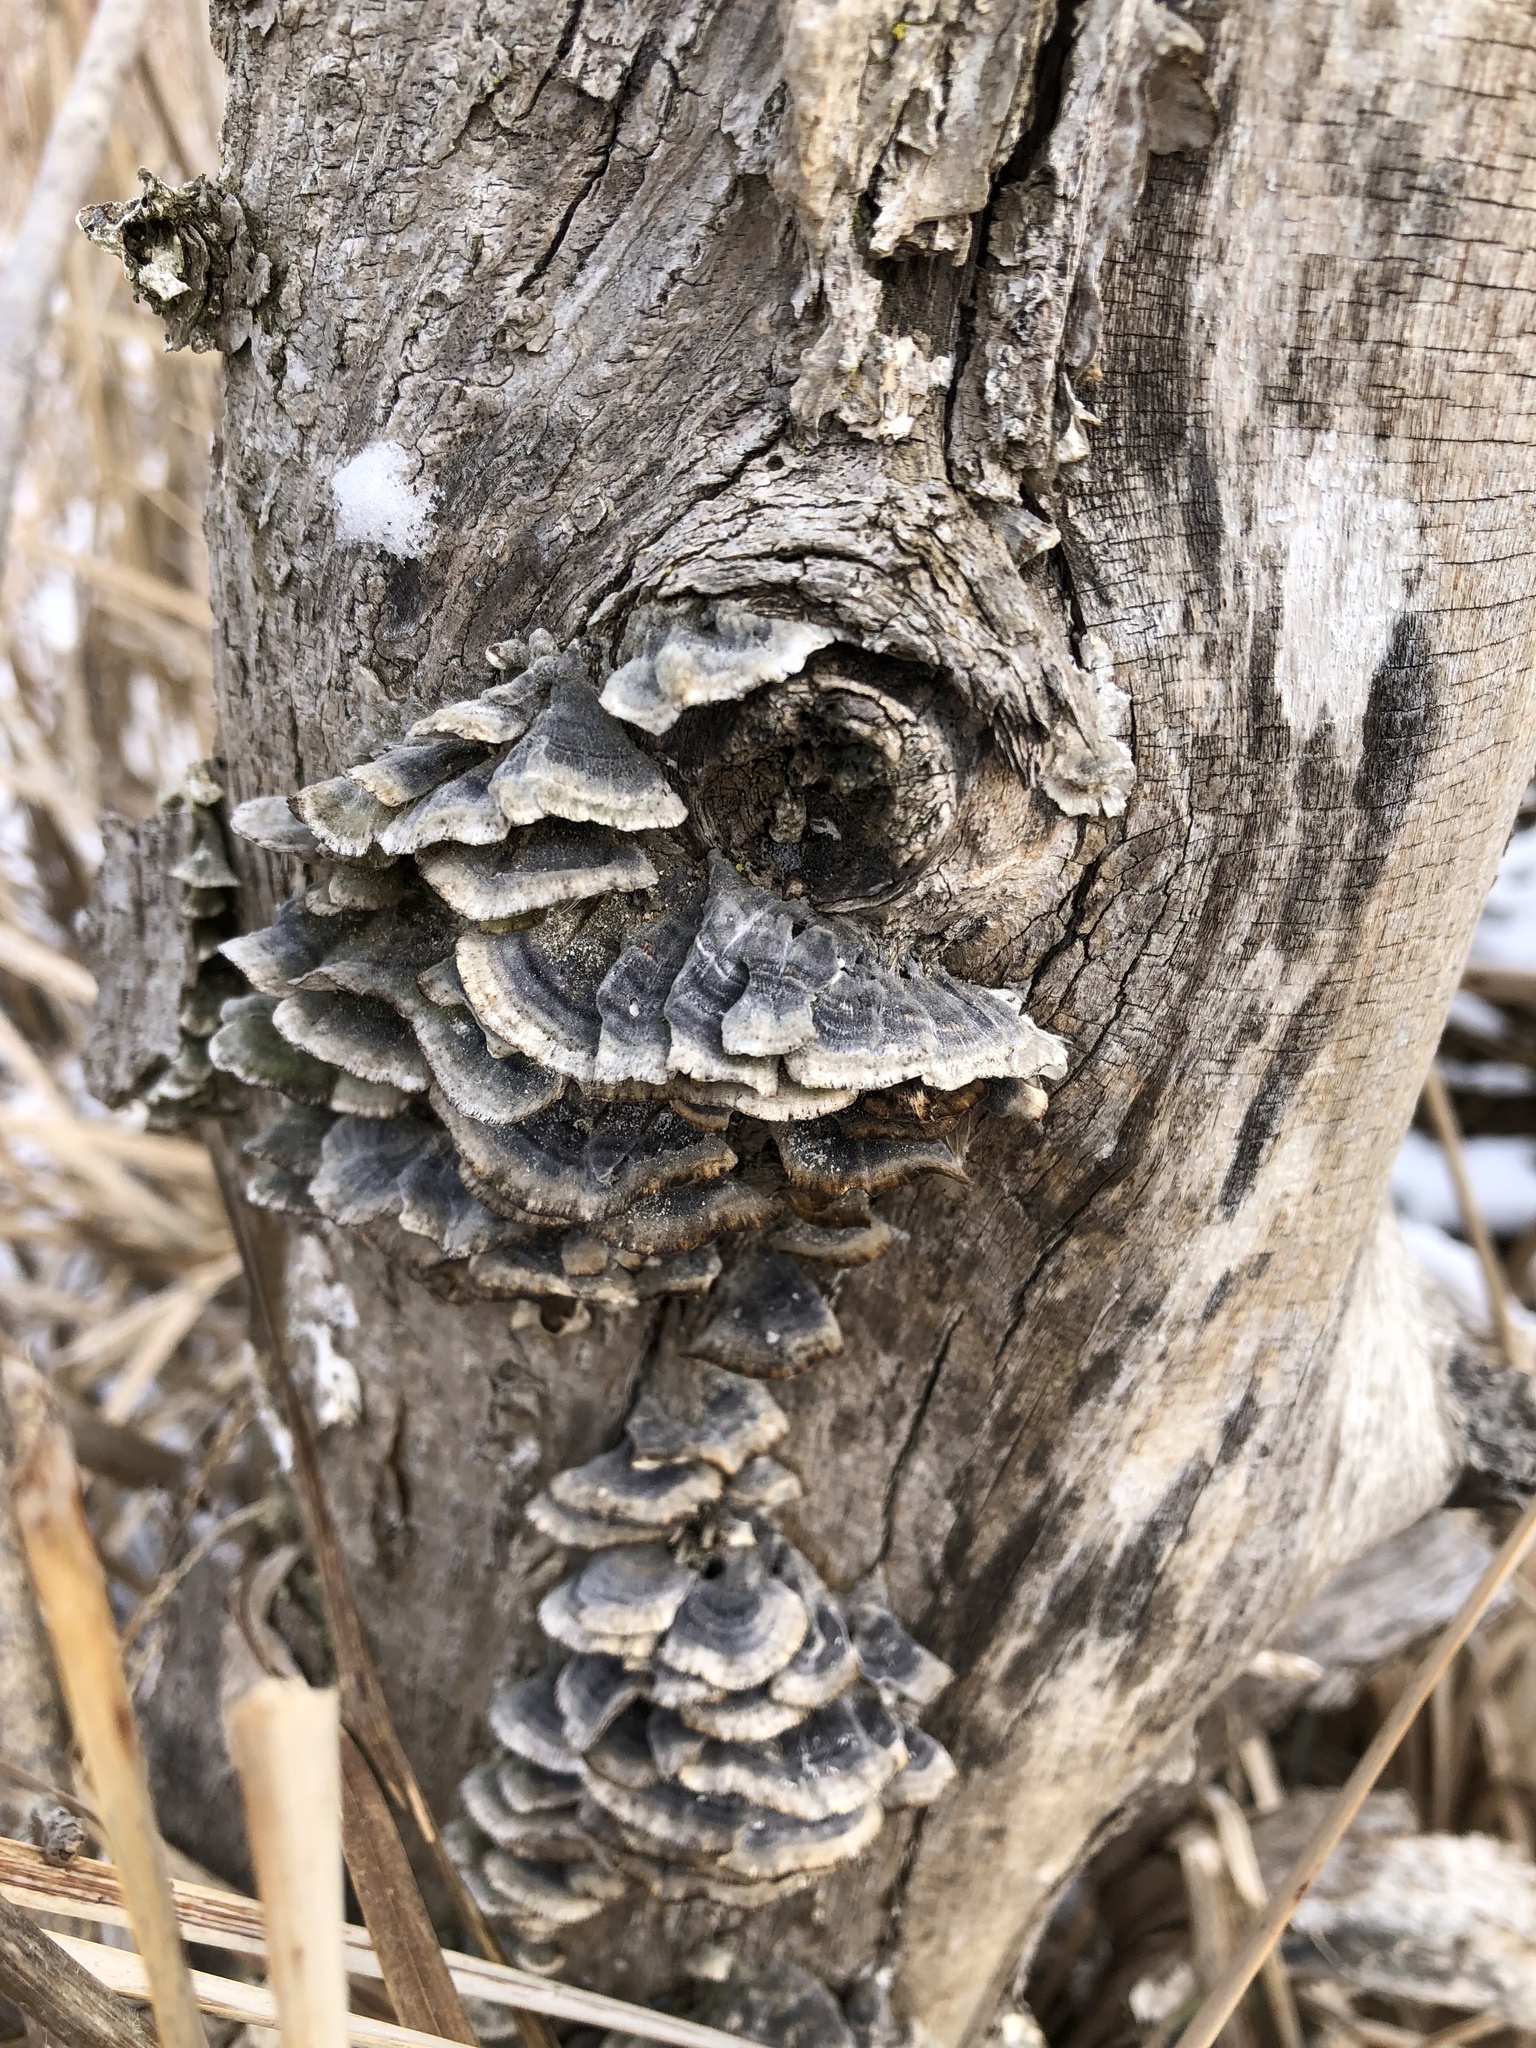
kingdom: Fungi
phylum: Basidiomycota
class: Agaricomycetes
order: Polyporales
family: Polyporaceae
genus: Trametes
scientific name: Trametes versicolor
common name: Turkeytail
